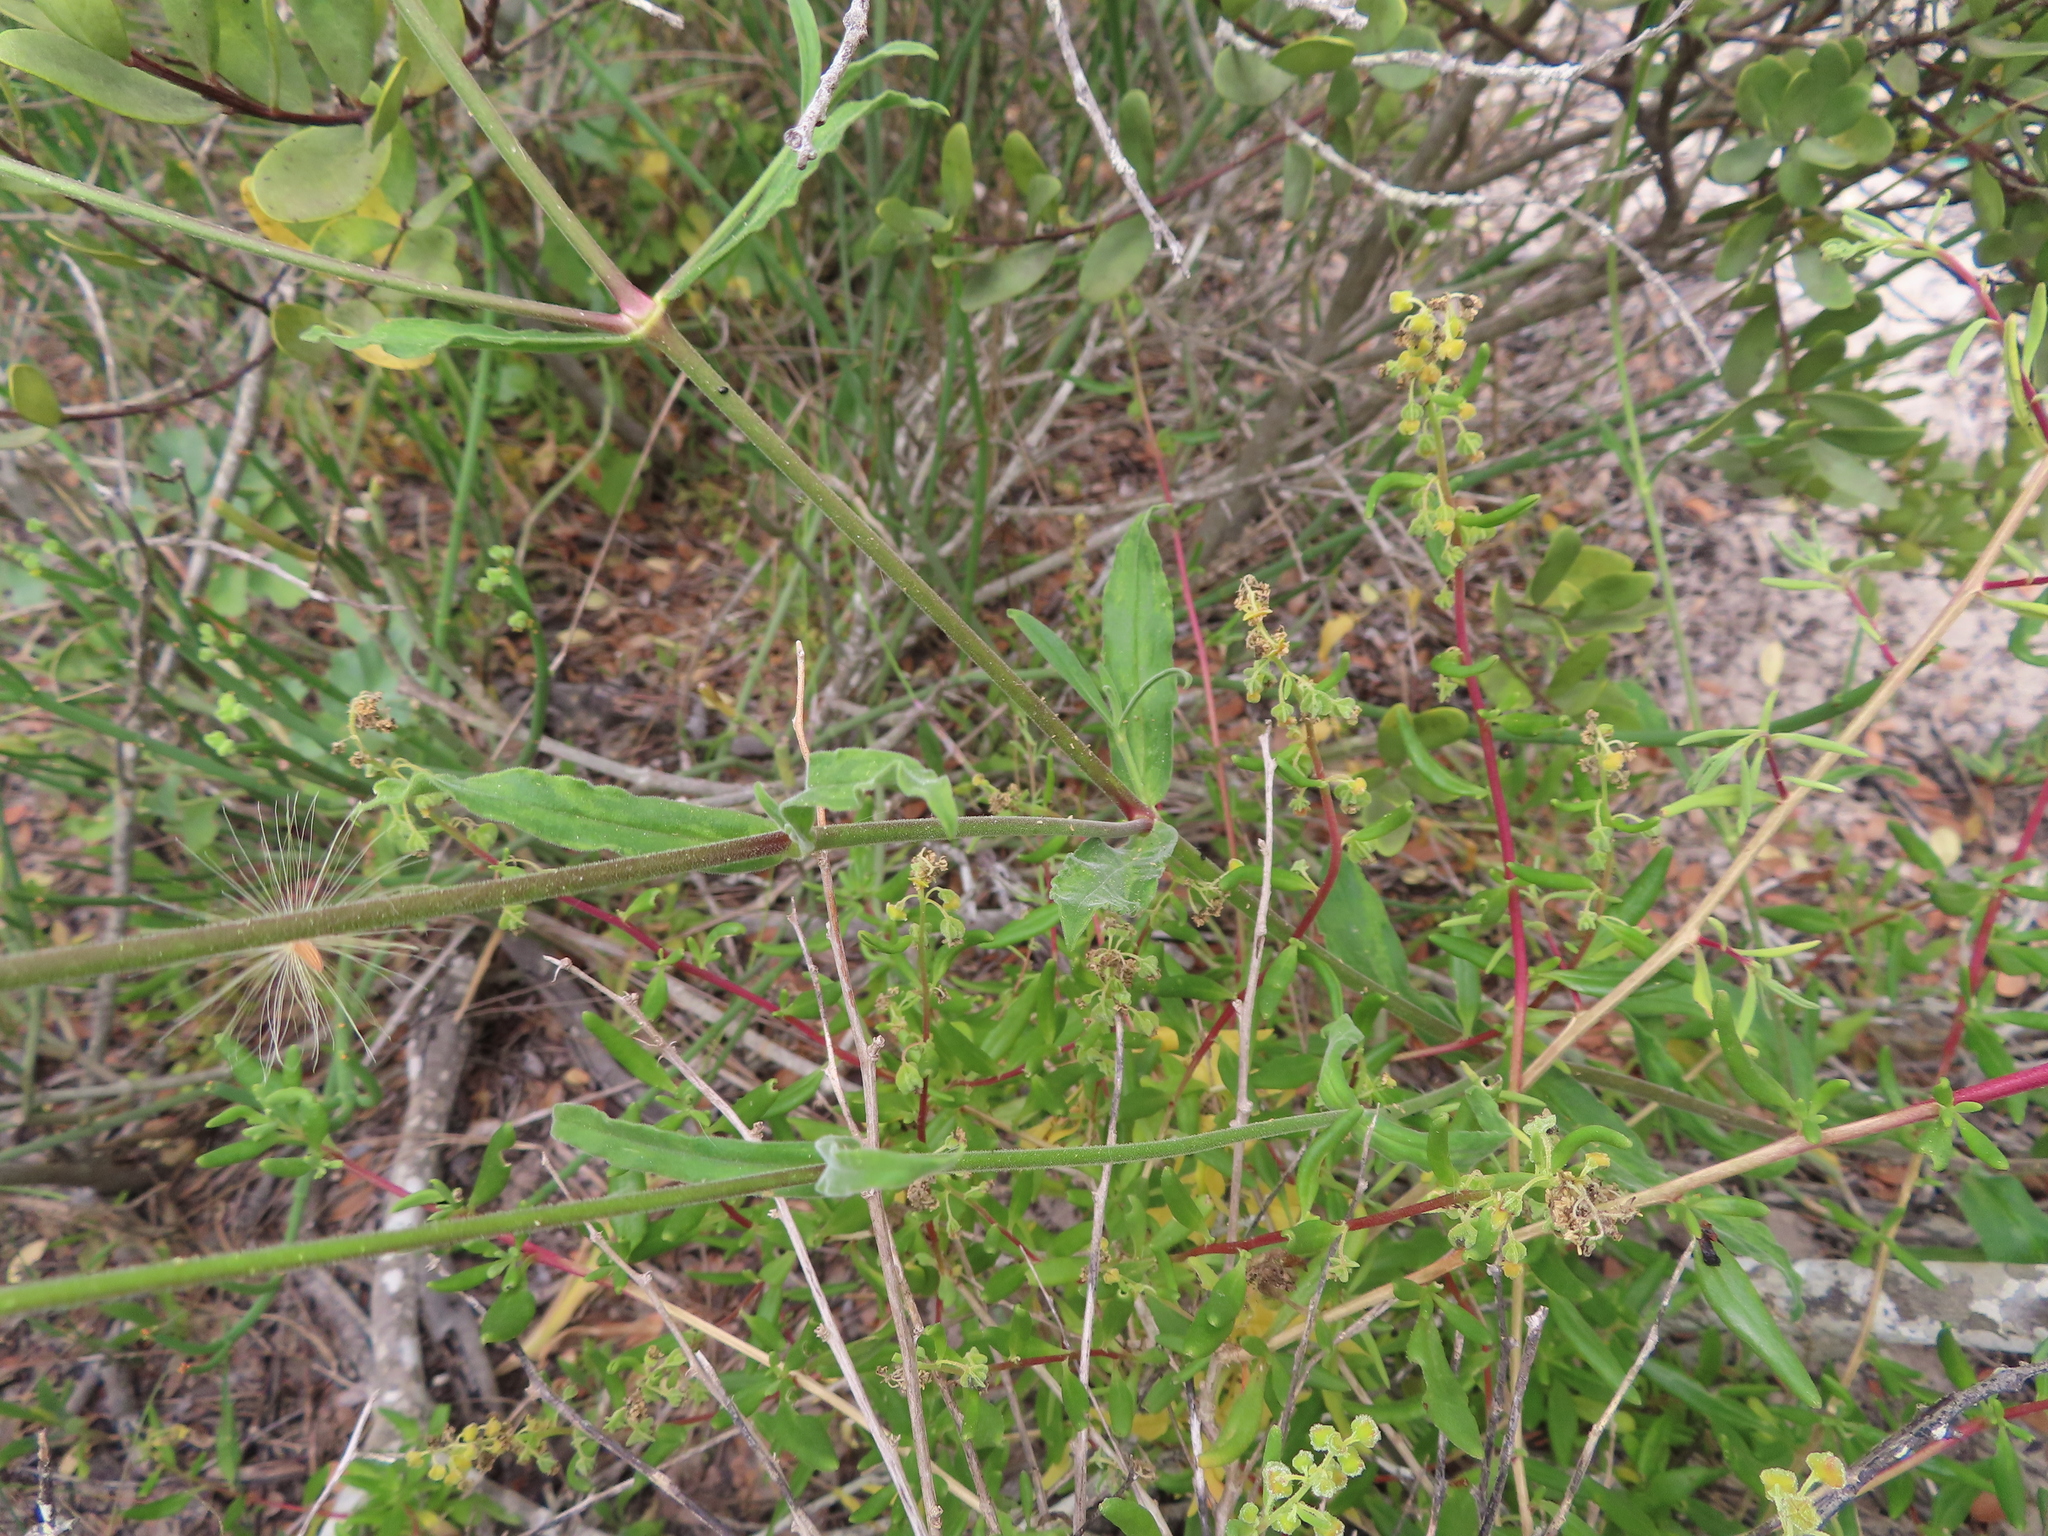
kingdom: Plantae
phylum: Tracheophyta
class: Magnoliopsida
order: Caryophyllales
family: Caryophyllaceae
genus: Silene
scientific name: Silene rigens
